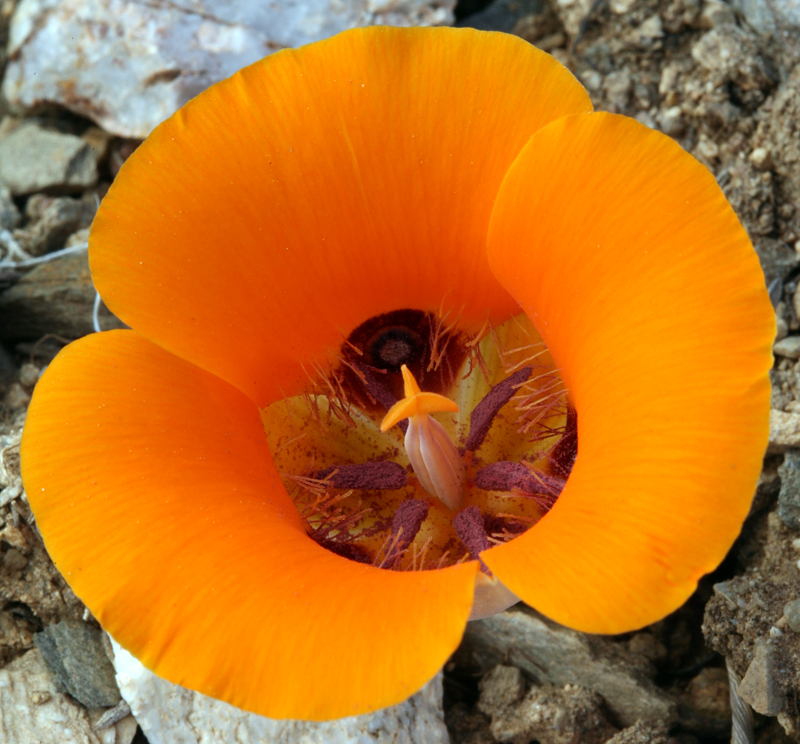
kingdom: Plantae
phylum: Tracheophyta
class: Liliopsida
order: Liliales
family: Liliaceae
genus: Calochortus
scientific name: Calochortus kennedyi
